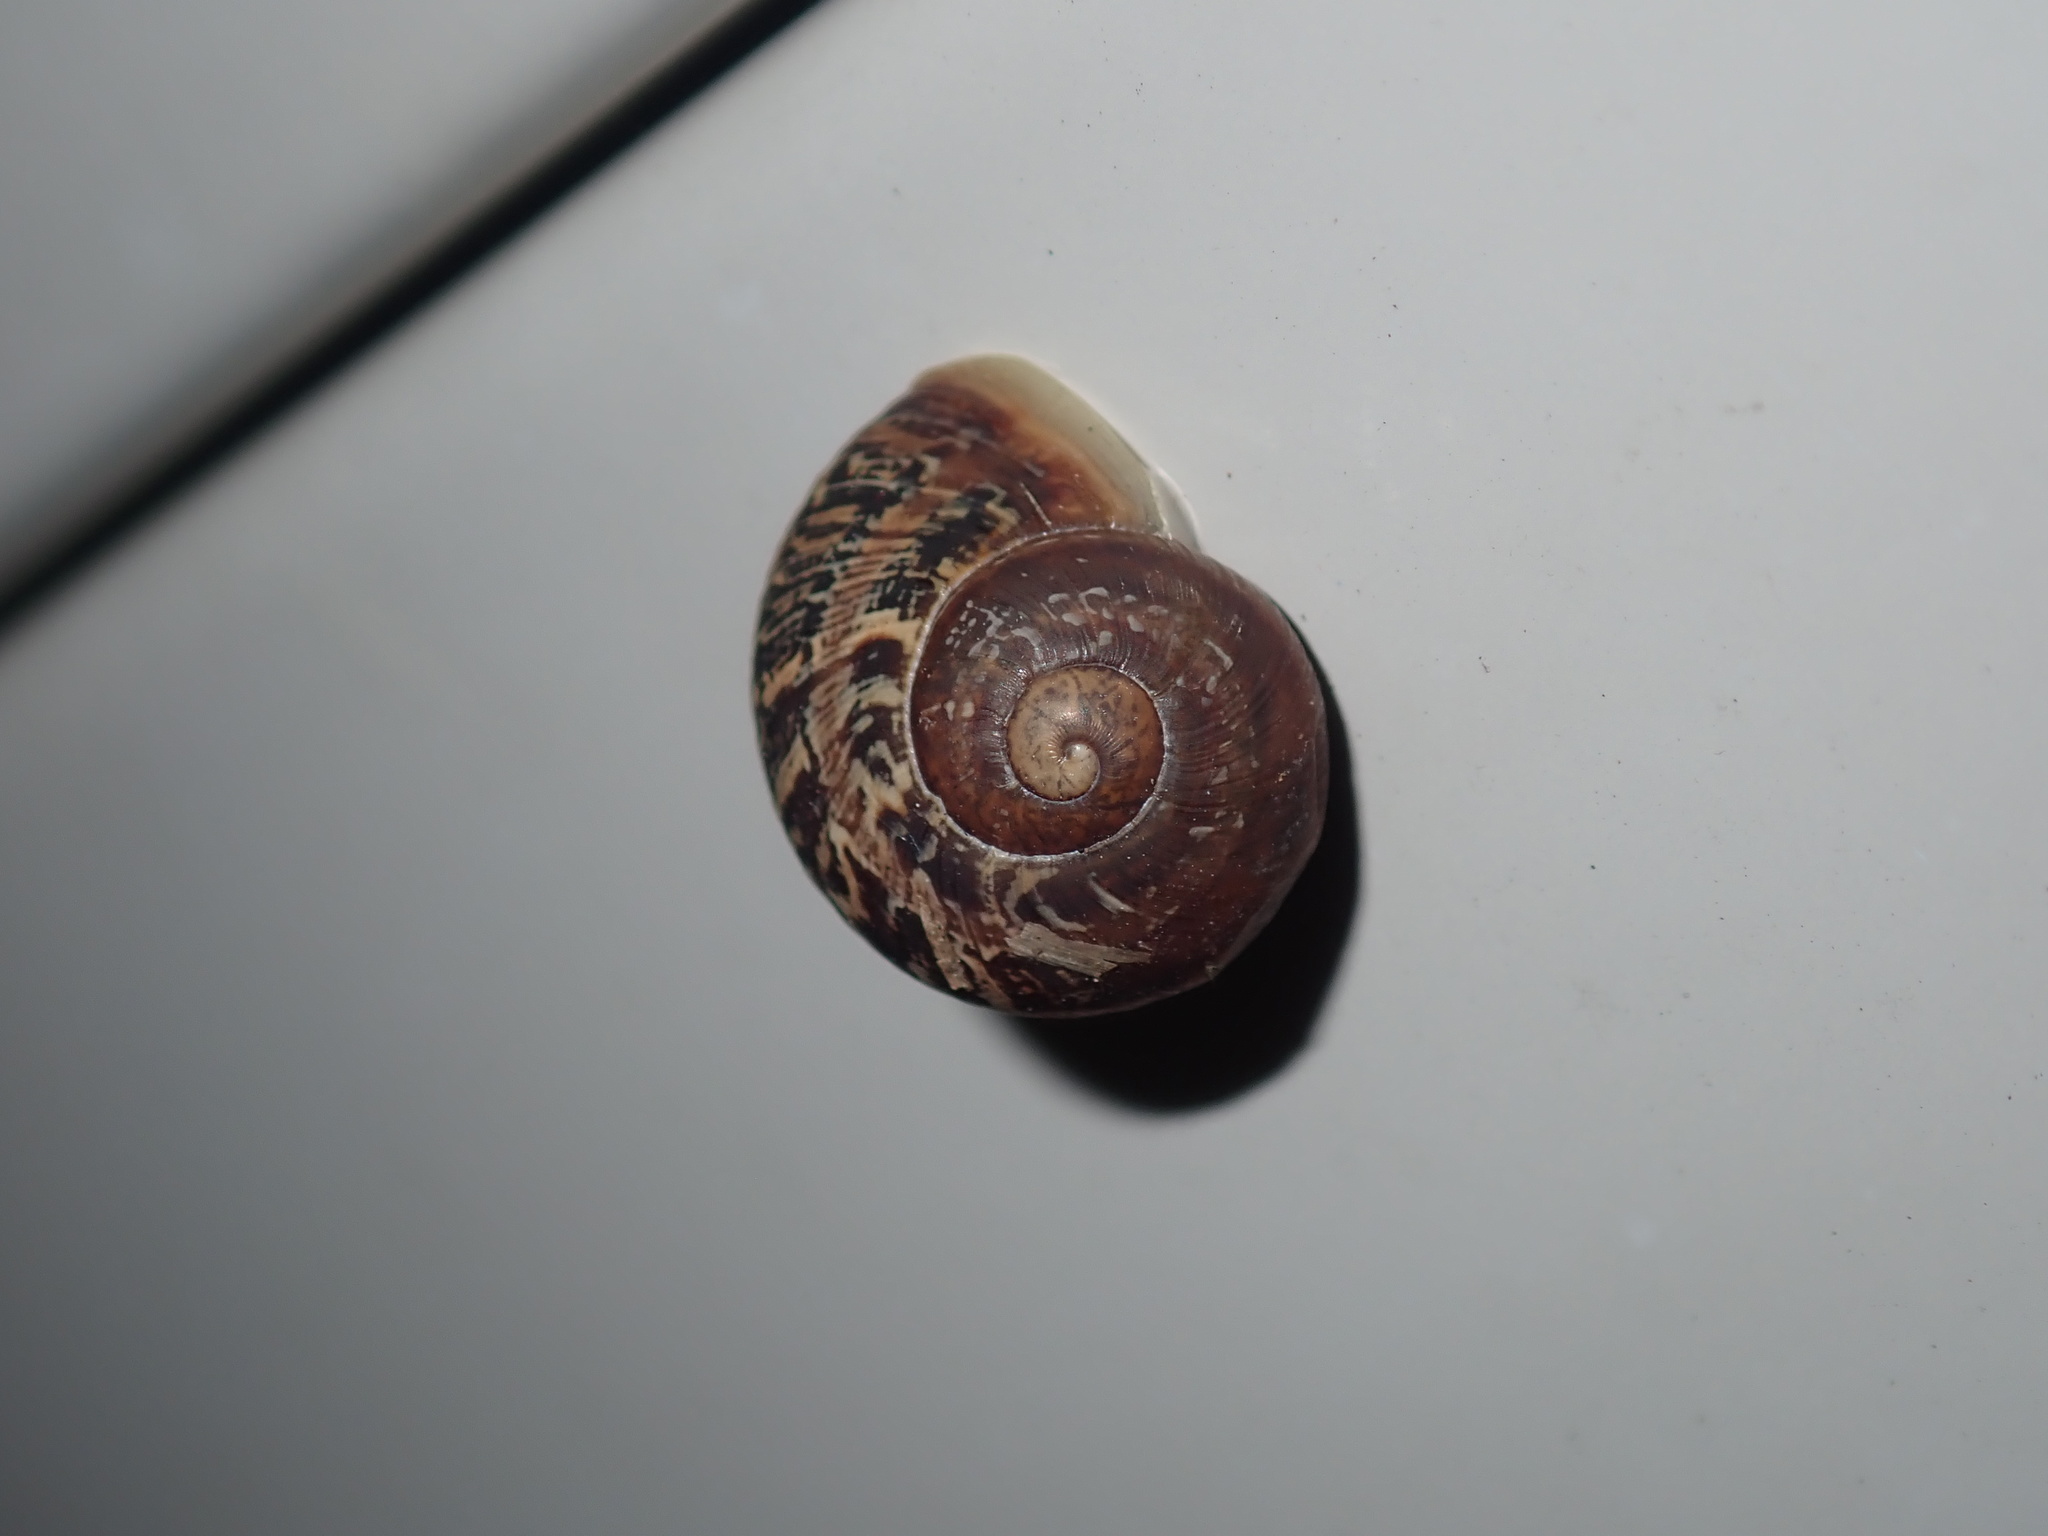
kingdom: Animalia
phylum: Mollusca
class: Gastropoda
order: Stylommatophora
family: Helicidae
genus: Cornu
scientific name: Cornu aspersum
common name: Brown garden snail
